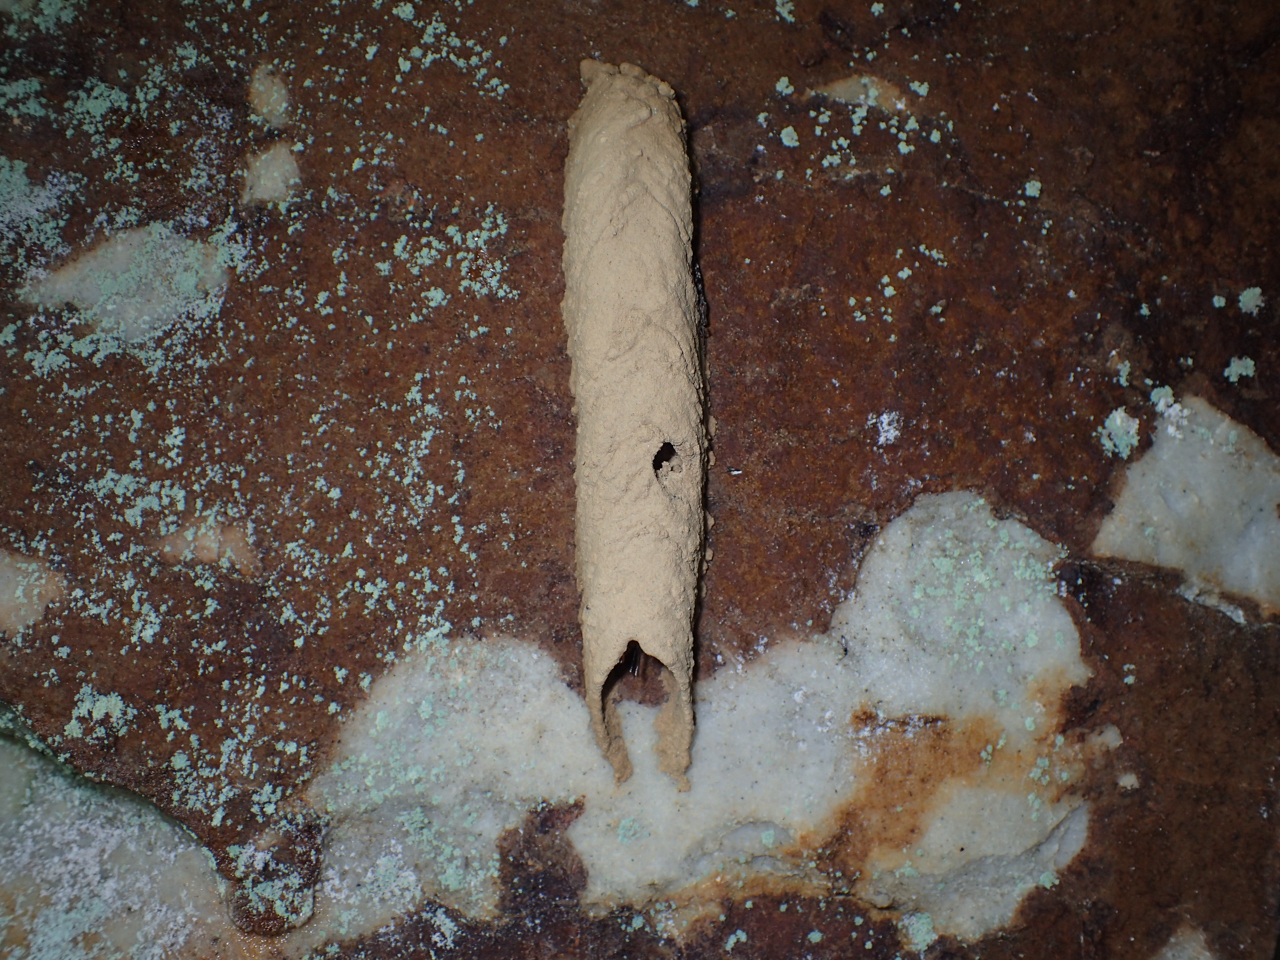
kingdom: Animalia
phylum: Arthropoda
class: Insecta
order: Hymenoptera
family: Crabronidae
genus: Trypoxylon
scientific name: Trypoxylon politum
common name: Organ-pipe mud-dauber wasp
